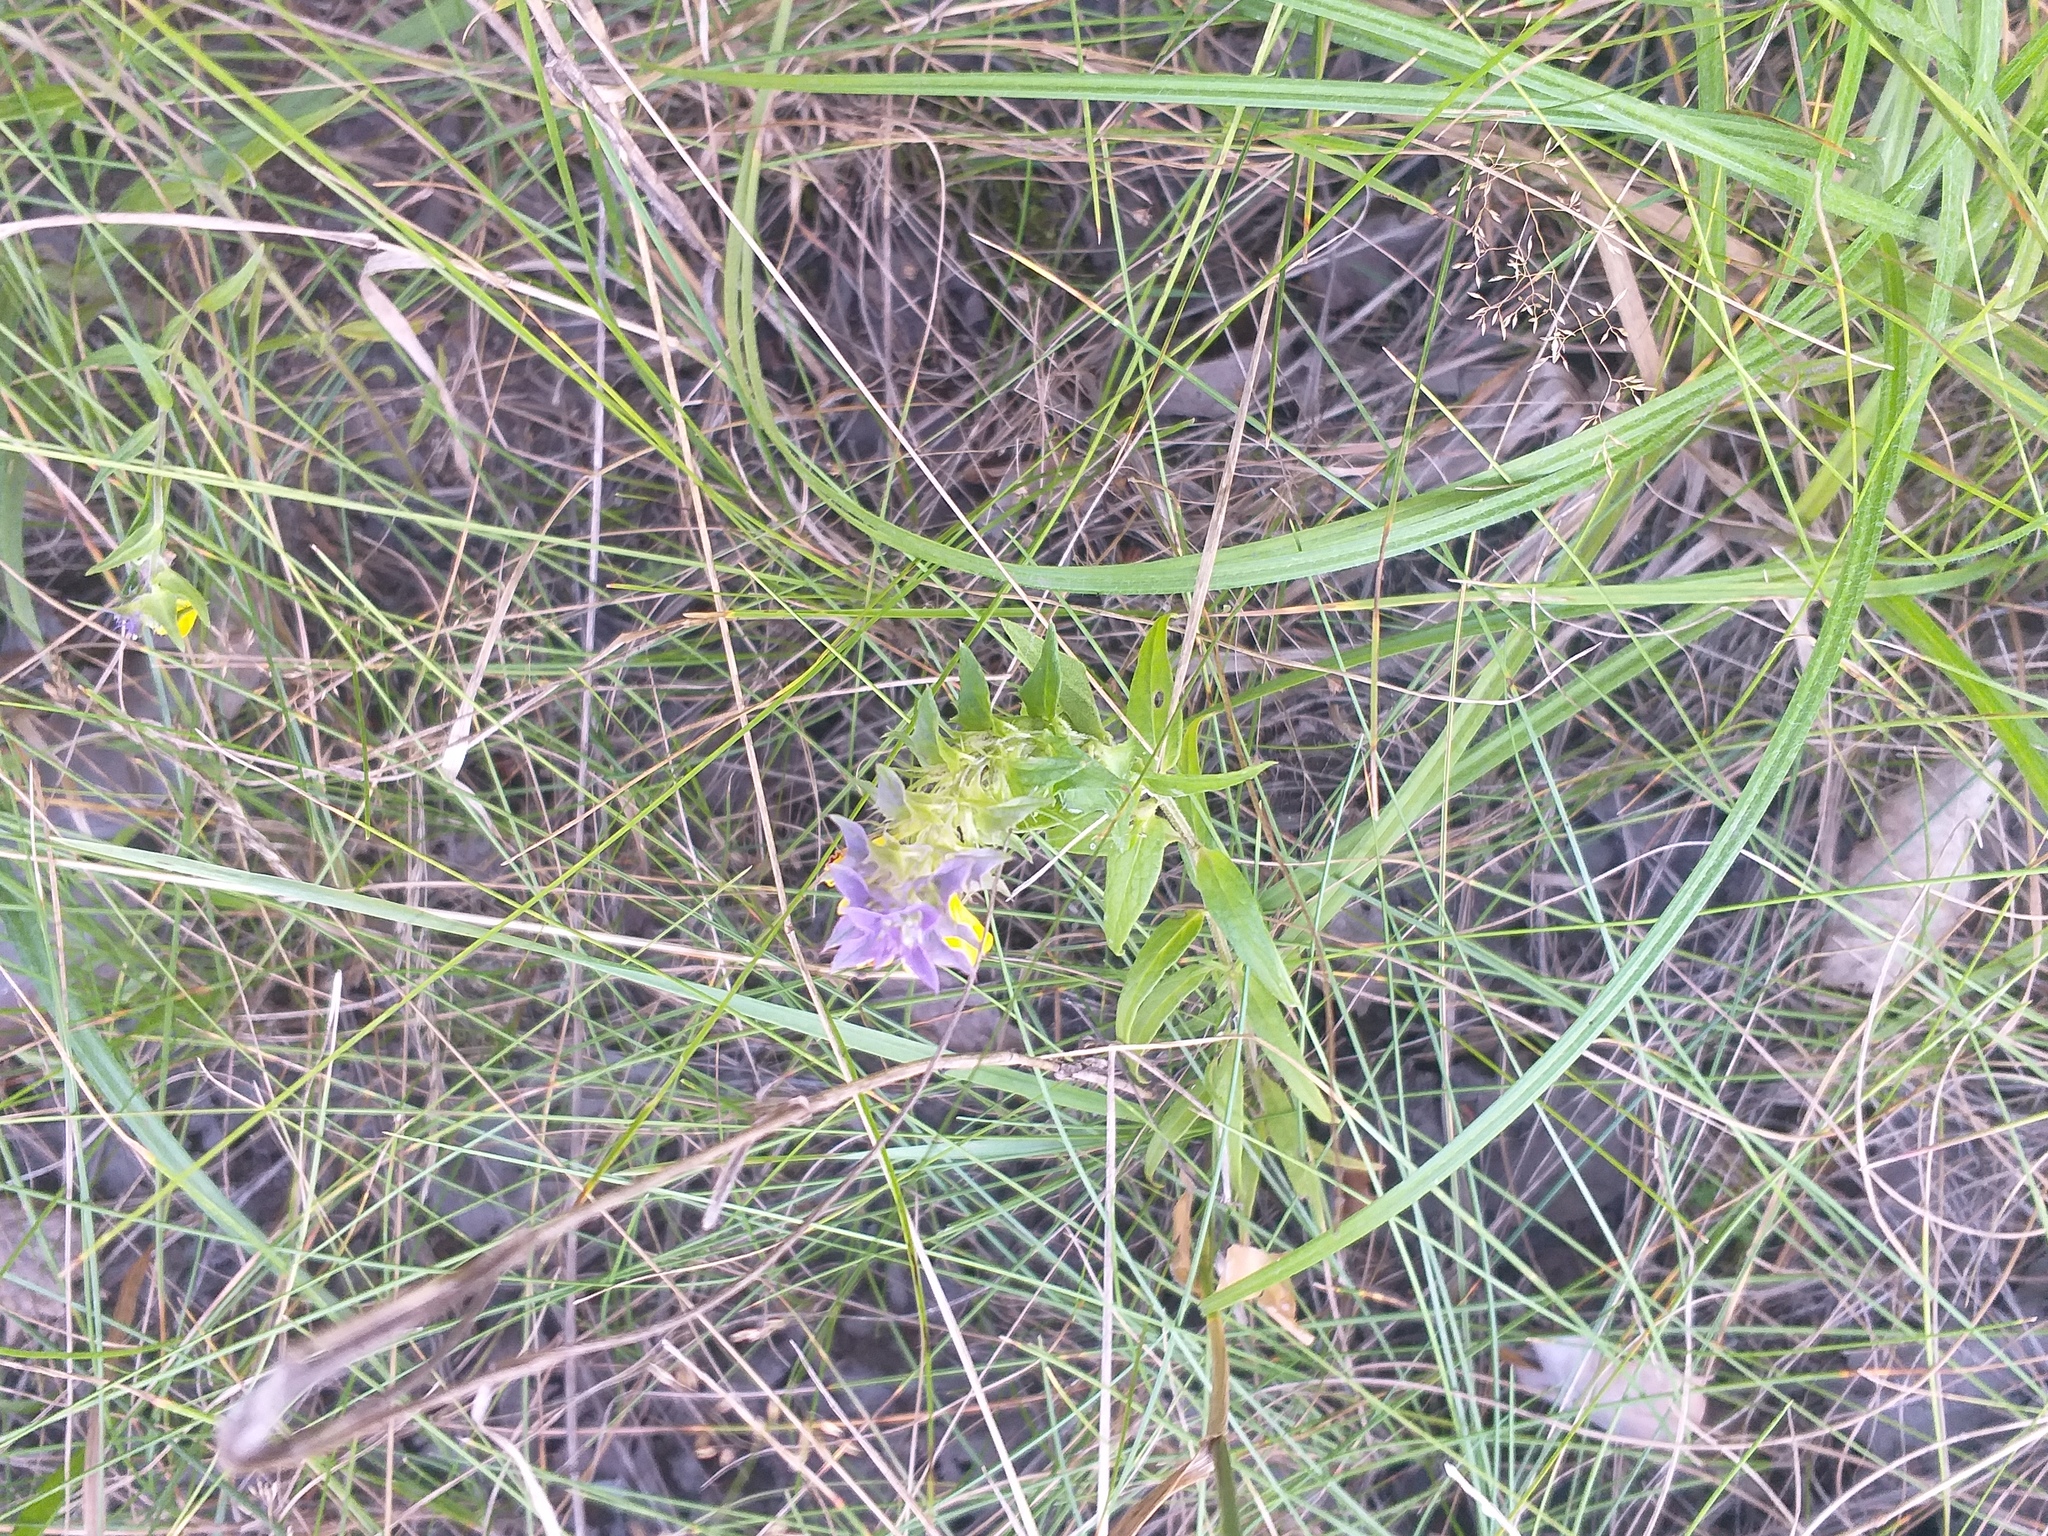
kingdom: Plantae
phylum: Tracheophyta
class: Magnoliopsida
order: Lamiales
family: Orobanchaceae
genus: Melampyrum
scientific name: Melampyrum nemorosum
